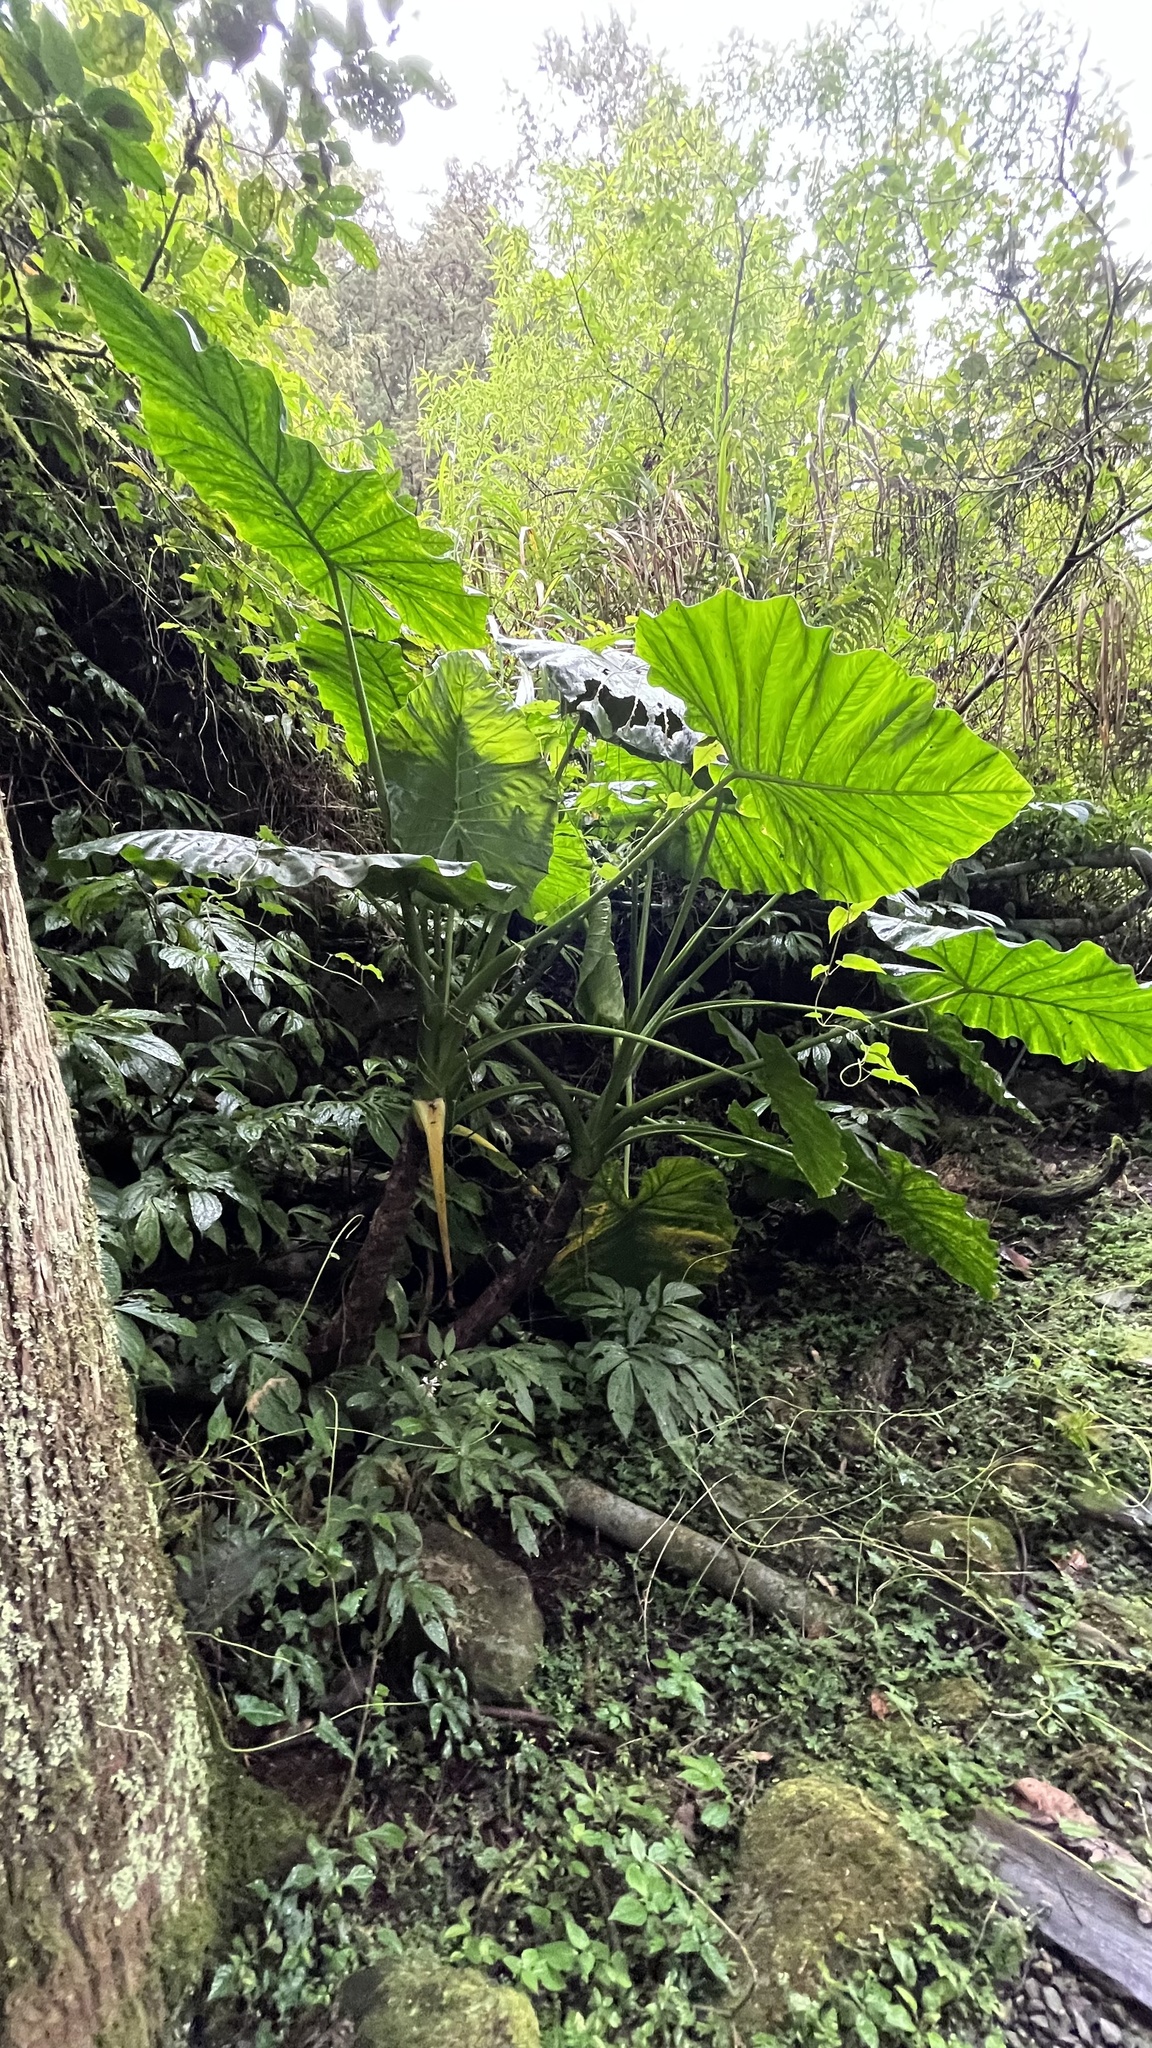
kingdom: Plantae
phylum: Tracheophyta
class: Liliopsida
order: Alismatales
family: Araceae
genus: Alocasia
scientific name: Alocasia odora
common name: Asian taro
